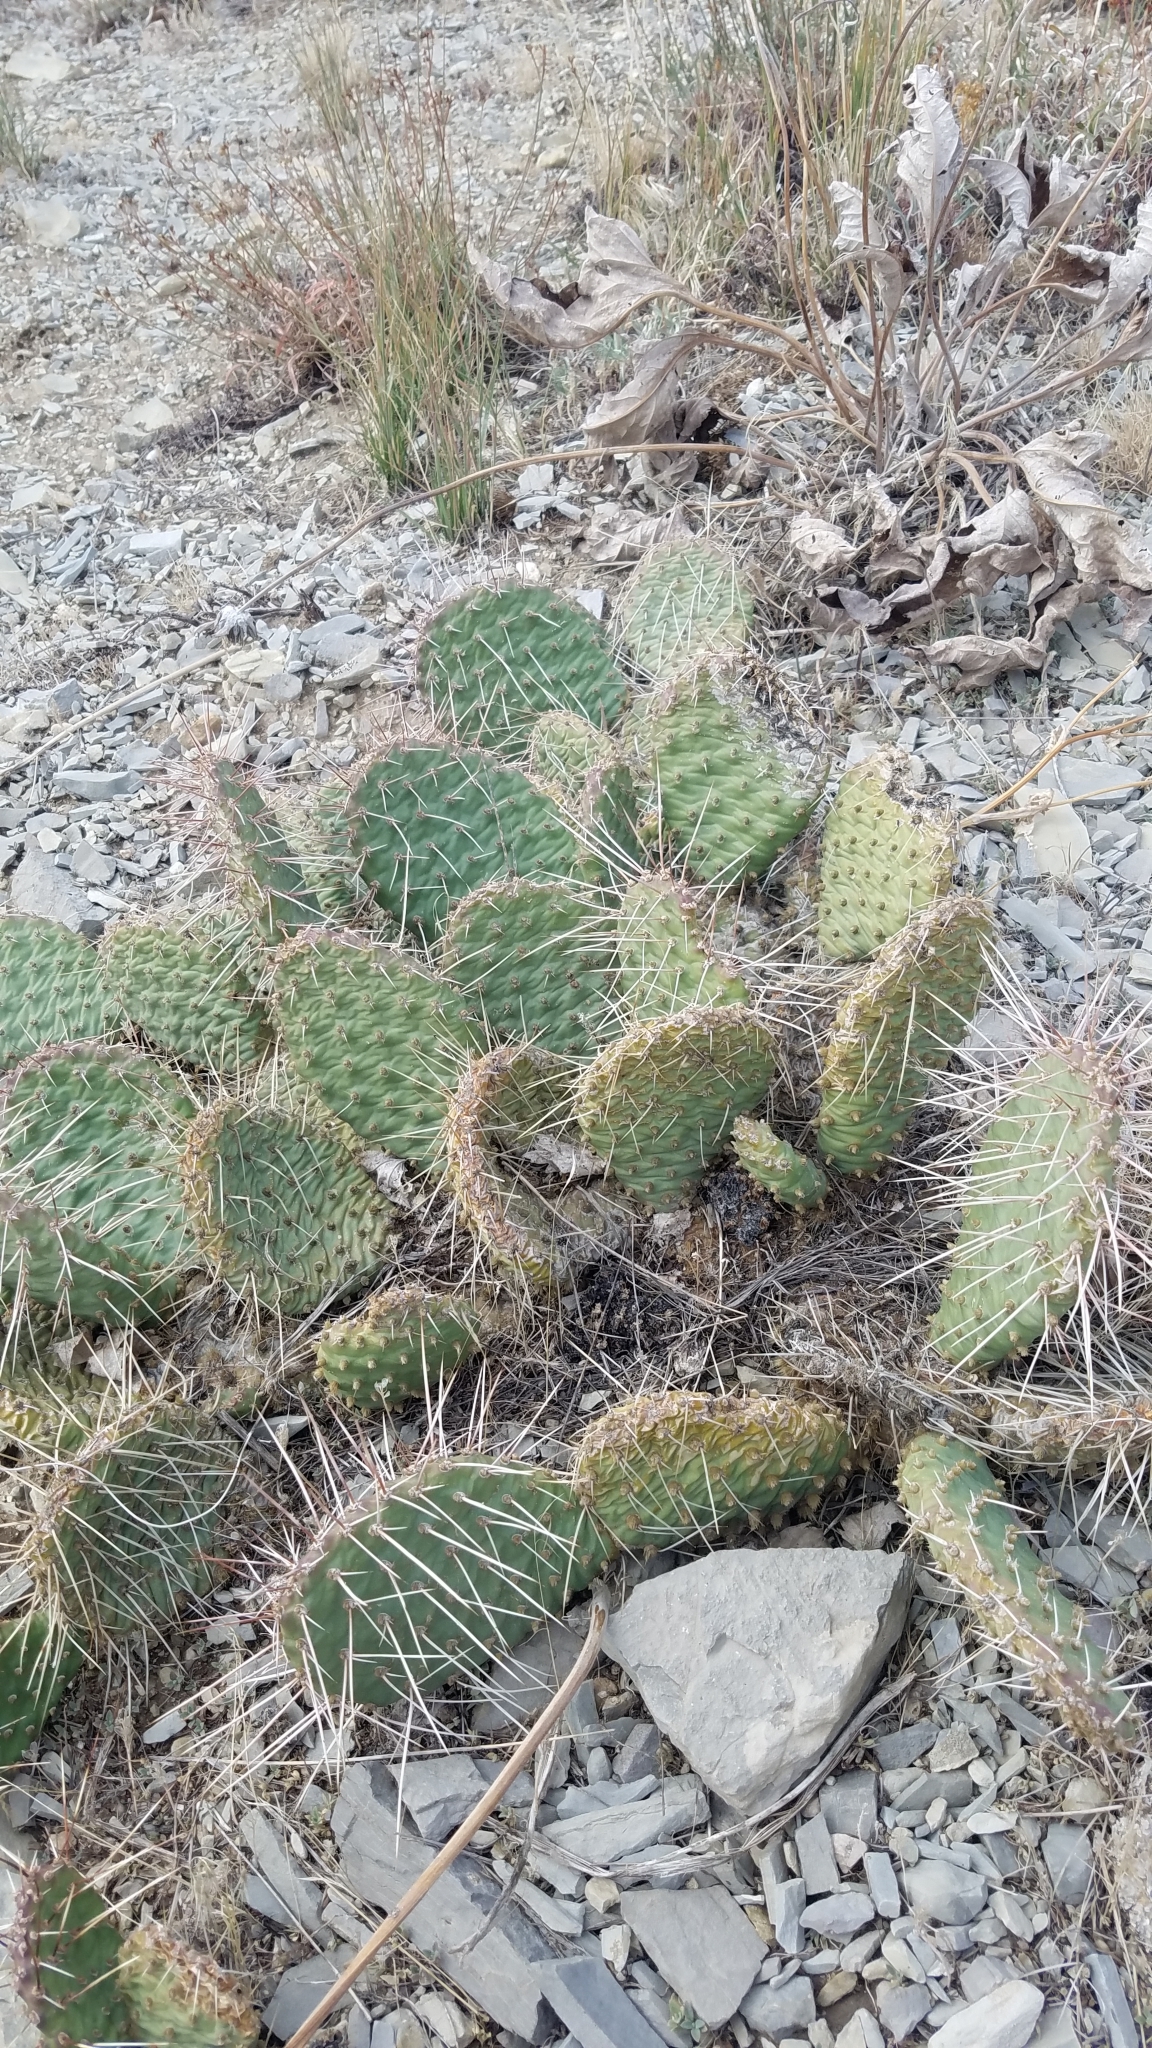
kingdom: Plantae
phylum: Tracheophyta
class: Magnoliopsida
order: Caryophyllales
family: Cactaceae
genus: Opuntia
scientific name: Opuntia polyacantha
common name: Plains prickly-pear
